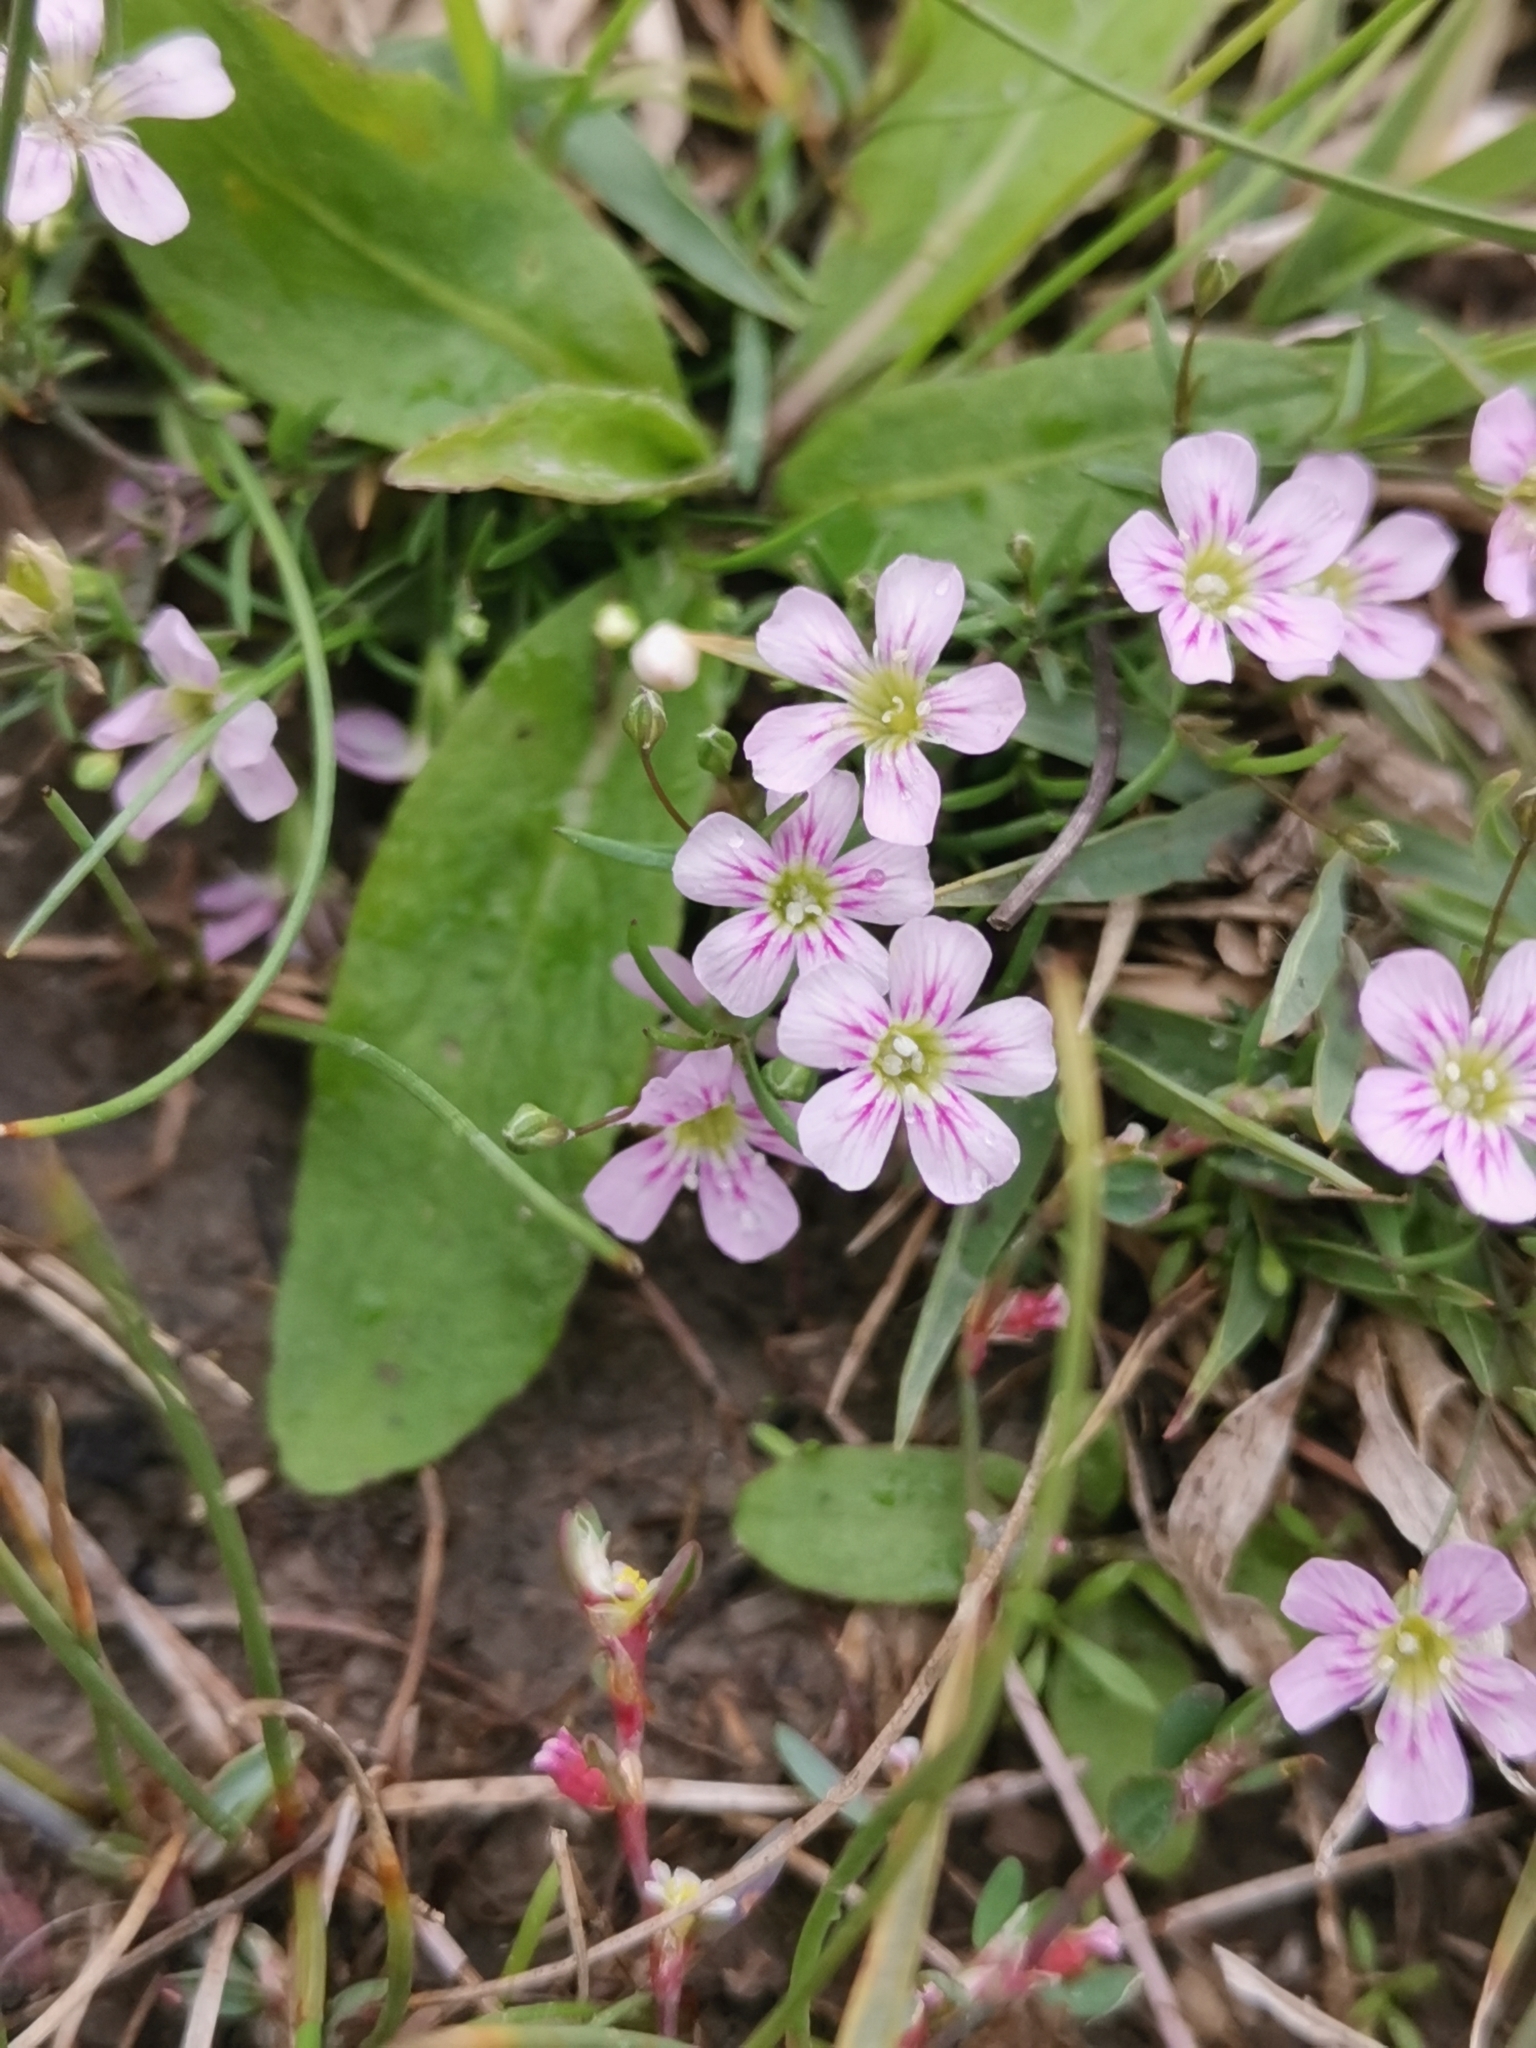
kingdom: Plantae
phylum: Tracheophyta
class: Magnoliopsida
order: Caryophyllales
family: Caryophyllaceae
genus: Psammophiliella
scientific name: Psammophiliella muralis
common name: Cushion baby's-breath
